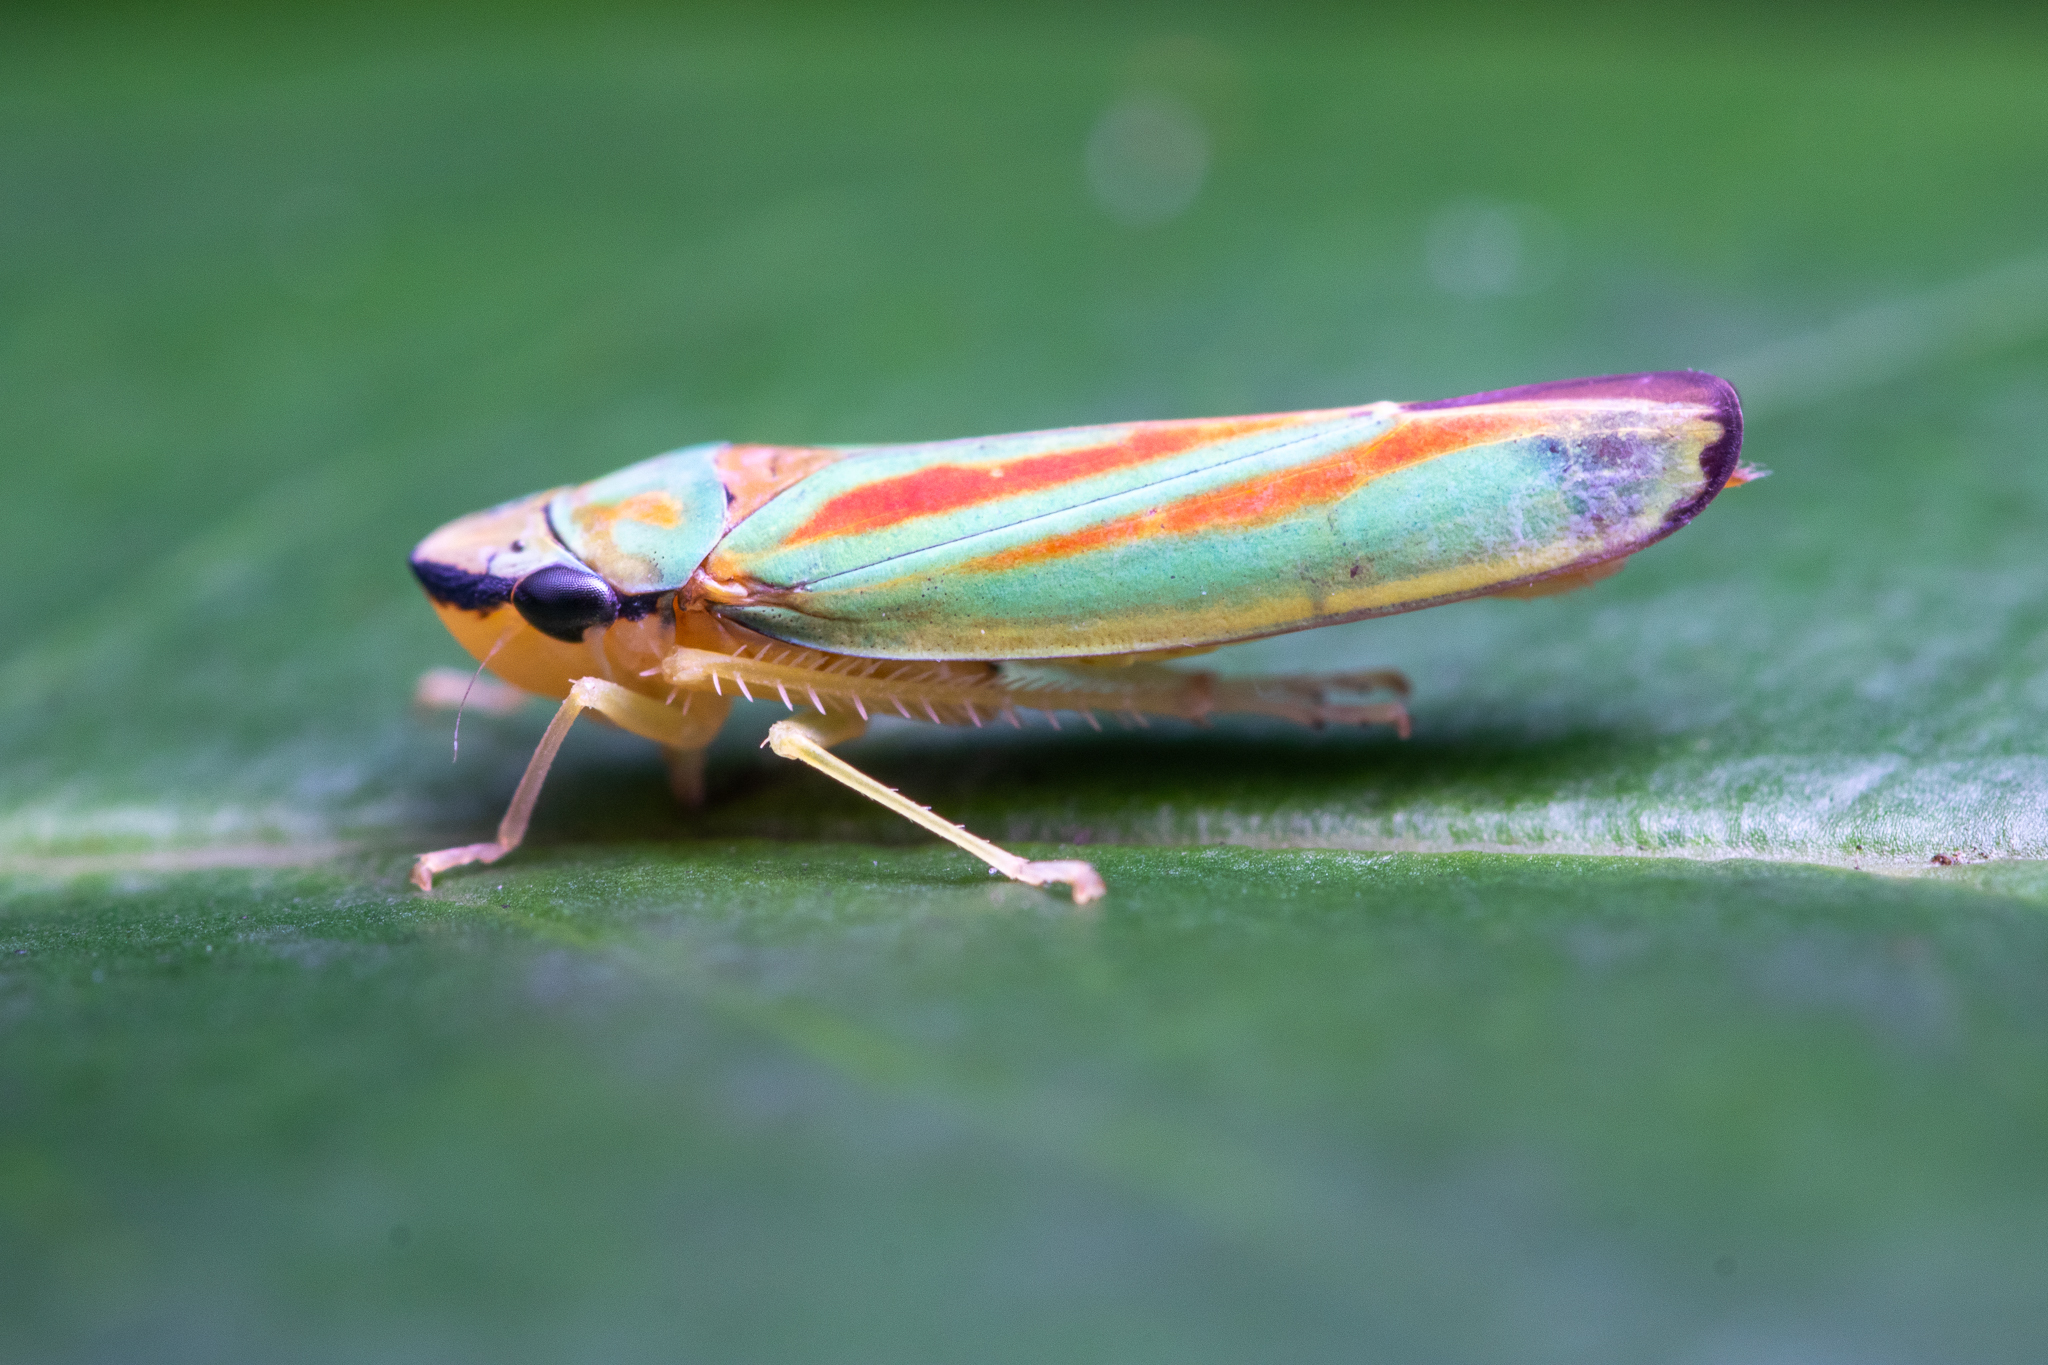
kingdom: Animalia
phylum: Arthropoda
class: Insecta
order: Hemiptera
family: Cicadellidae
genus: Graphocephala
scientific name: Graphocephala fennahi
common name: Rhododendron leafhopper
